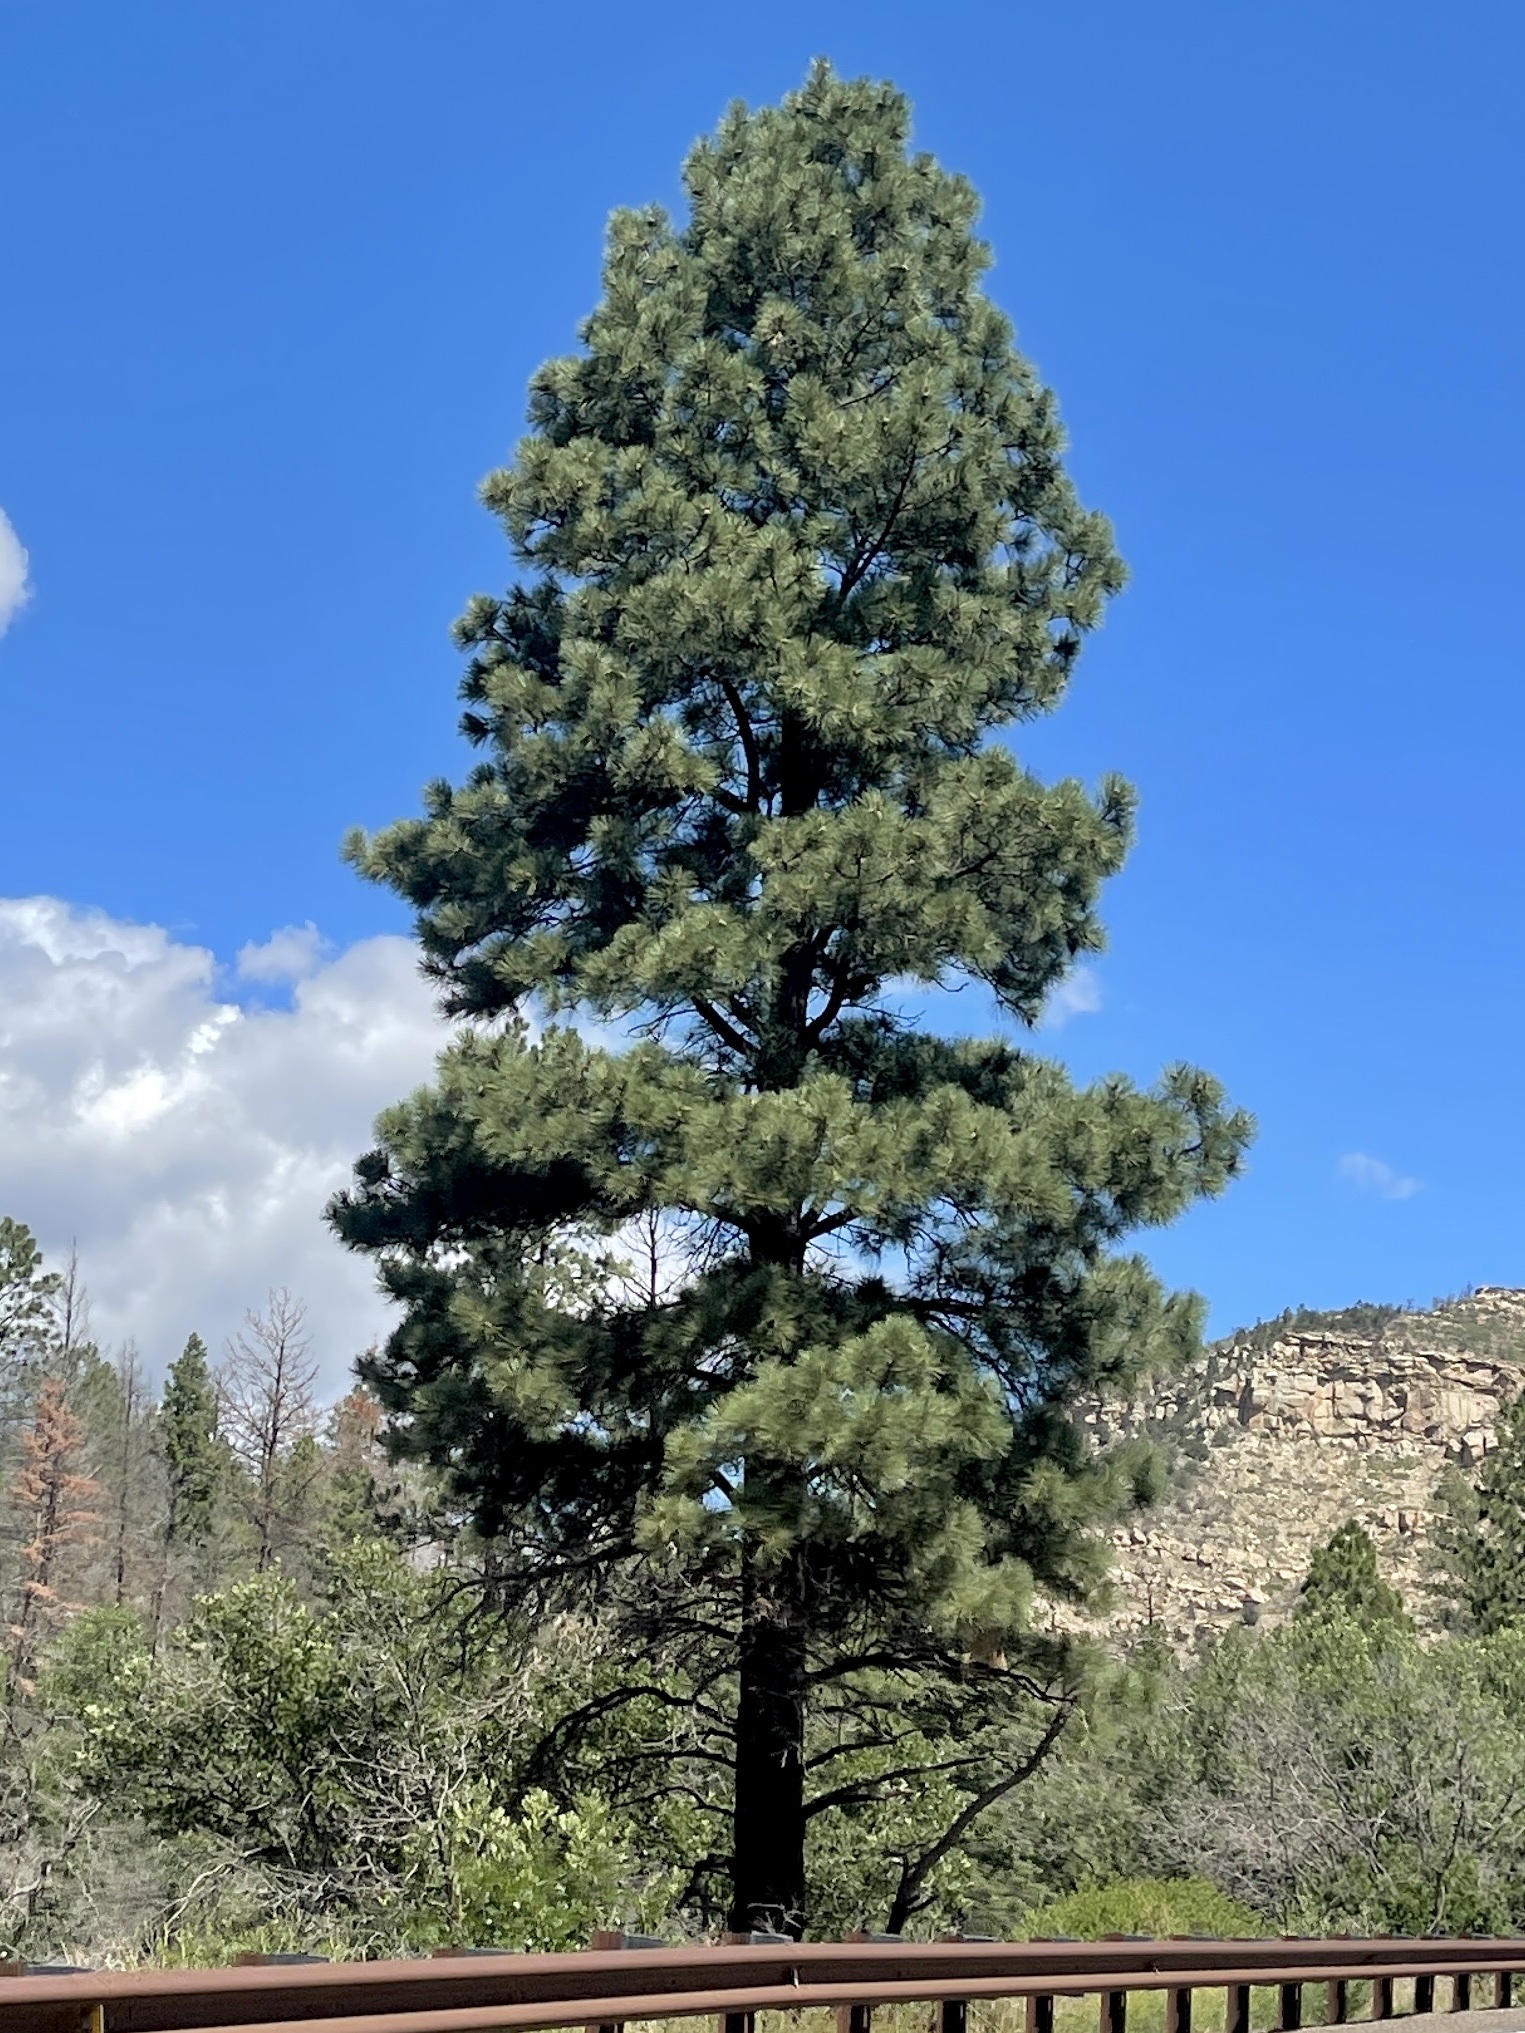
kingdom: Plantae
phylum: Tracheophyta
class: Pinopsida
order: Pinales
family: Pinaceae
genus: Pinus
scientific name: Pinus ponderosa
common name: Western yellow-pine
